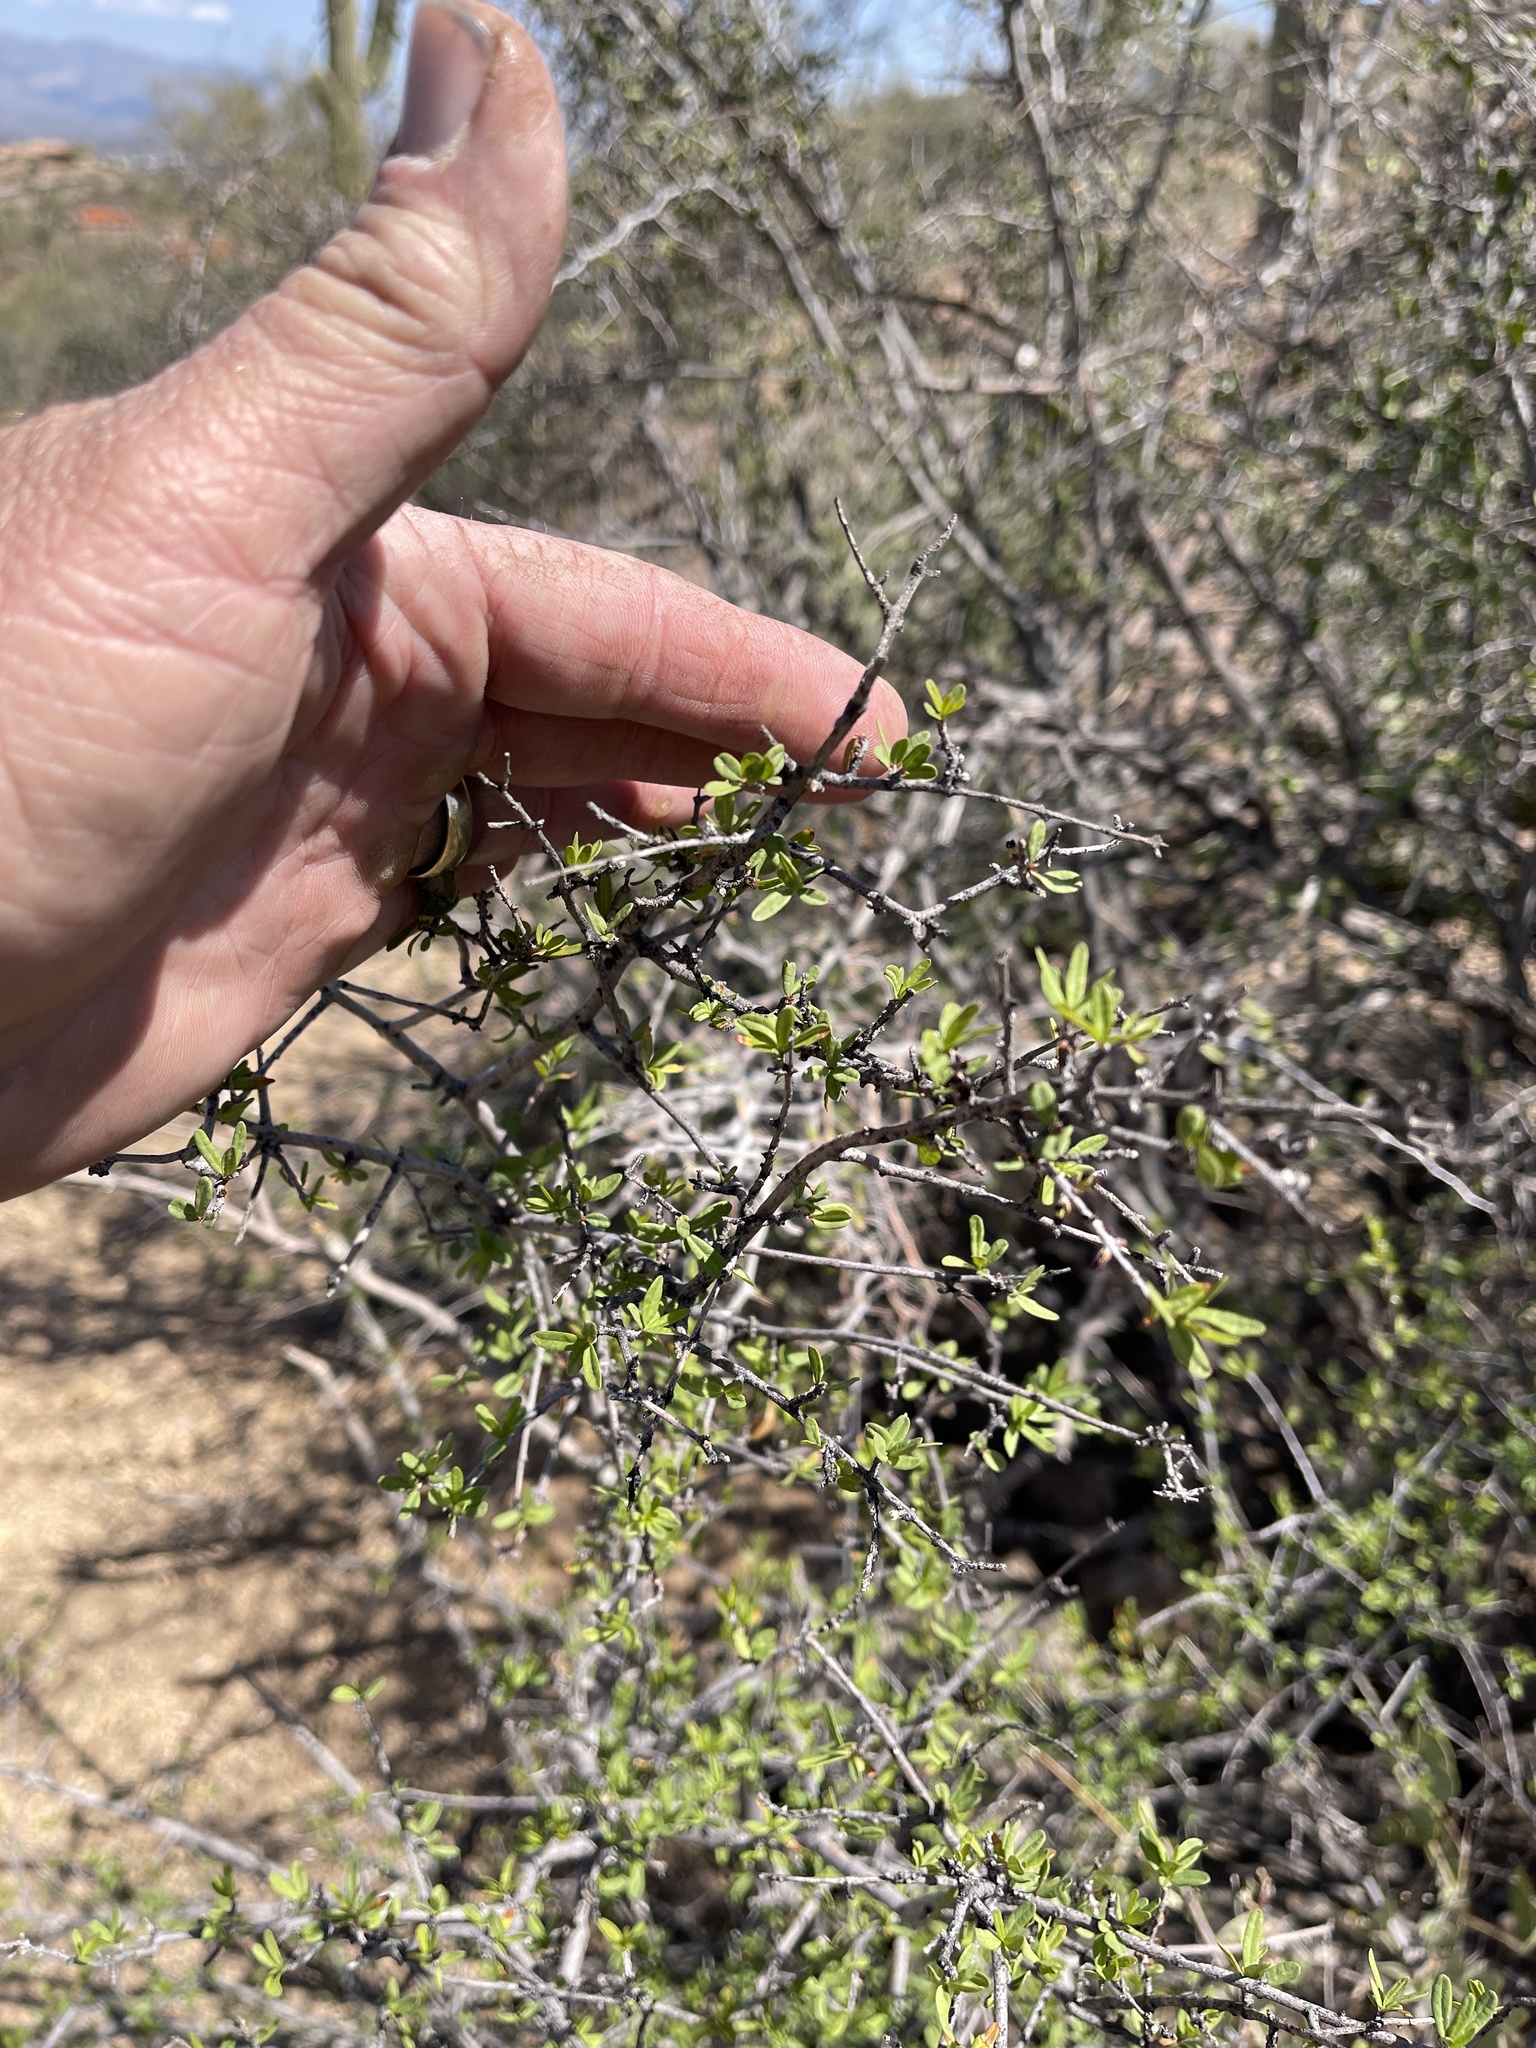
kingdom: Plantae
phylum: Tracheophyta
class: Magnoliopsida
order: Solanales
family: Solanaceae
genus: Lycium
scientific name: Lycium berlandieri
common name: Berlandier wolfberry
